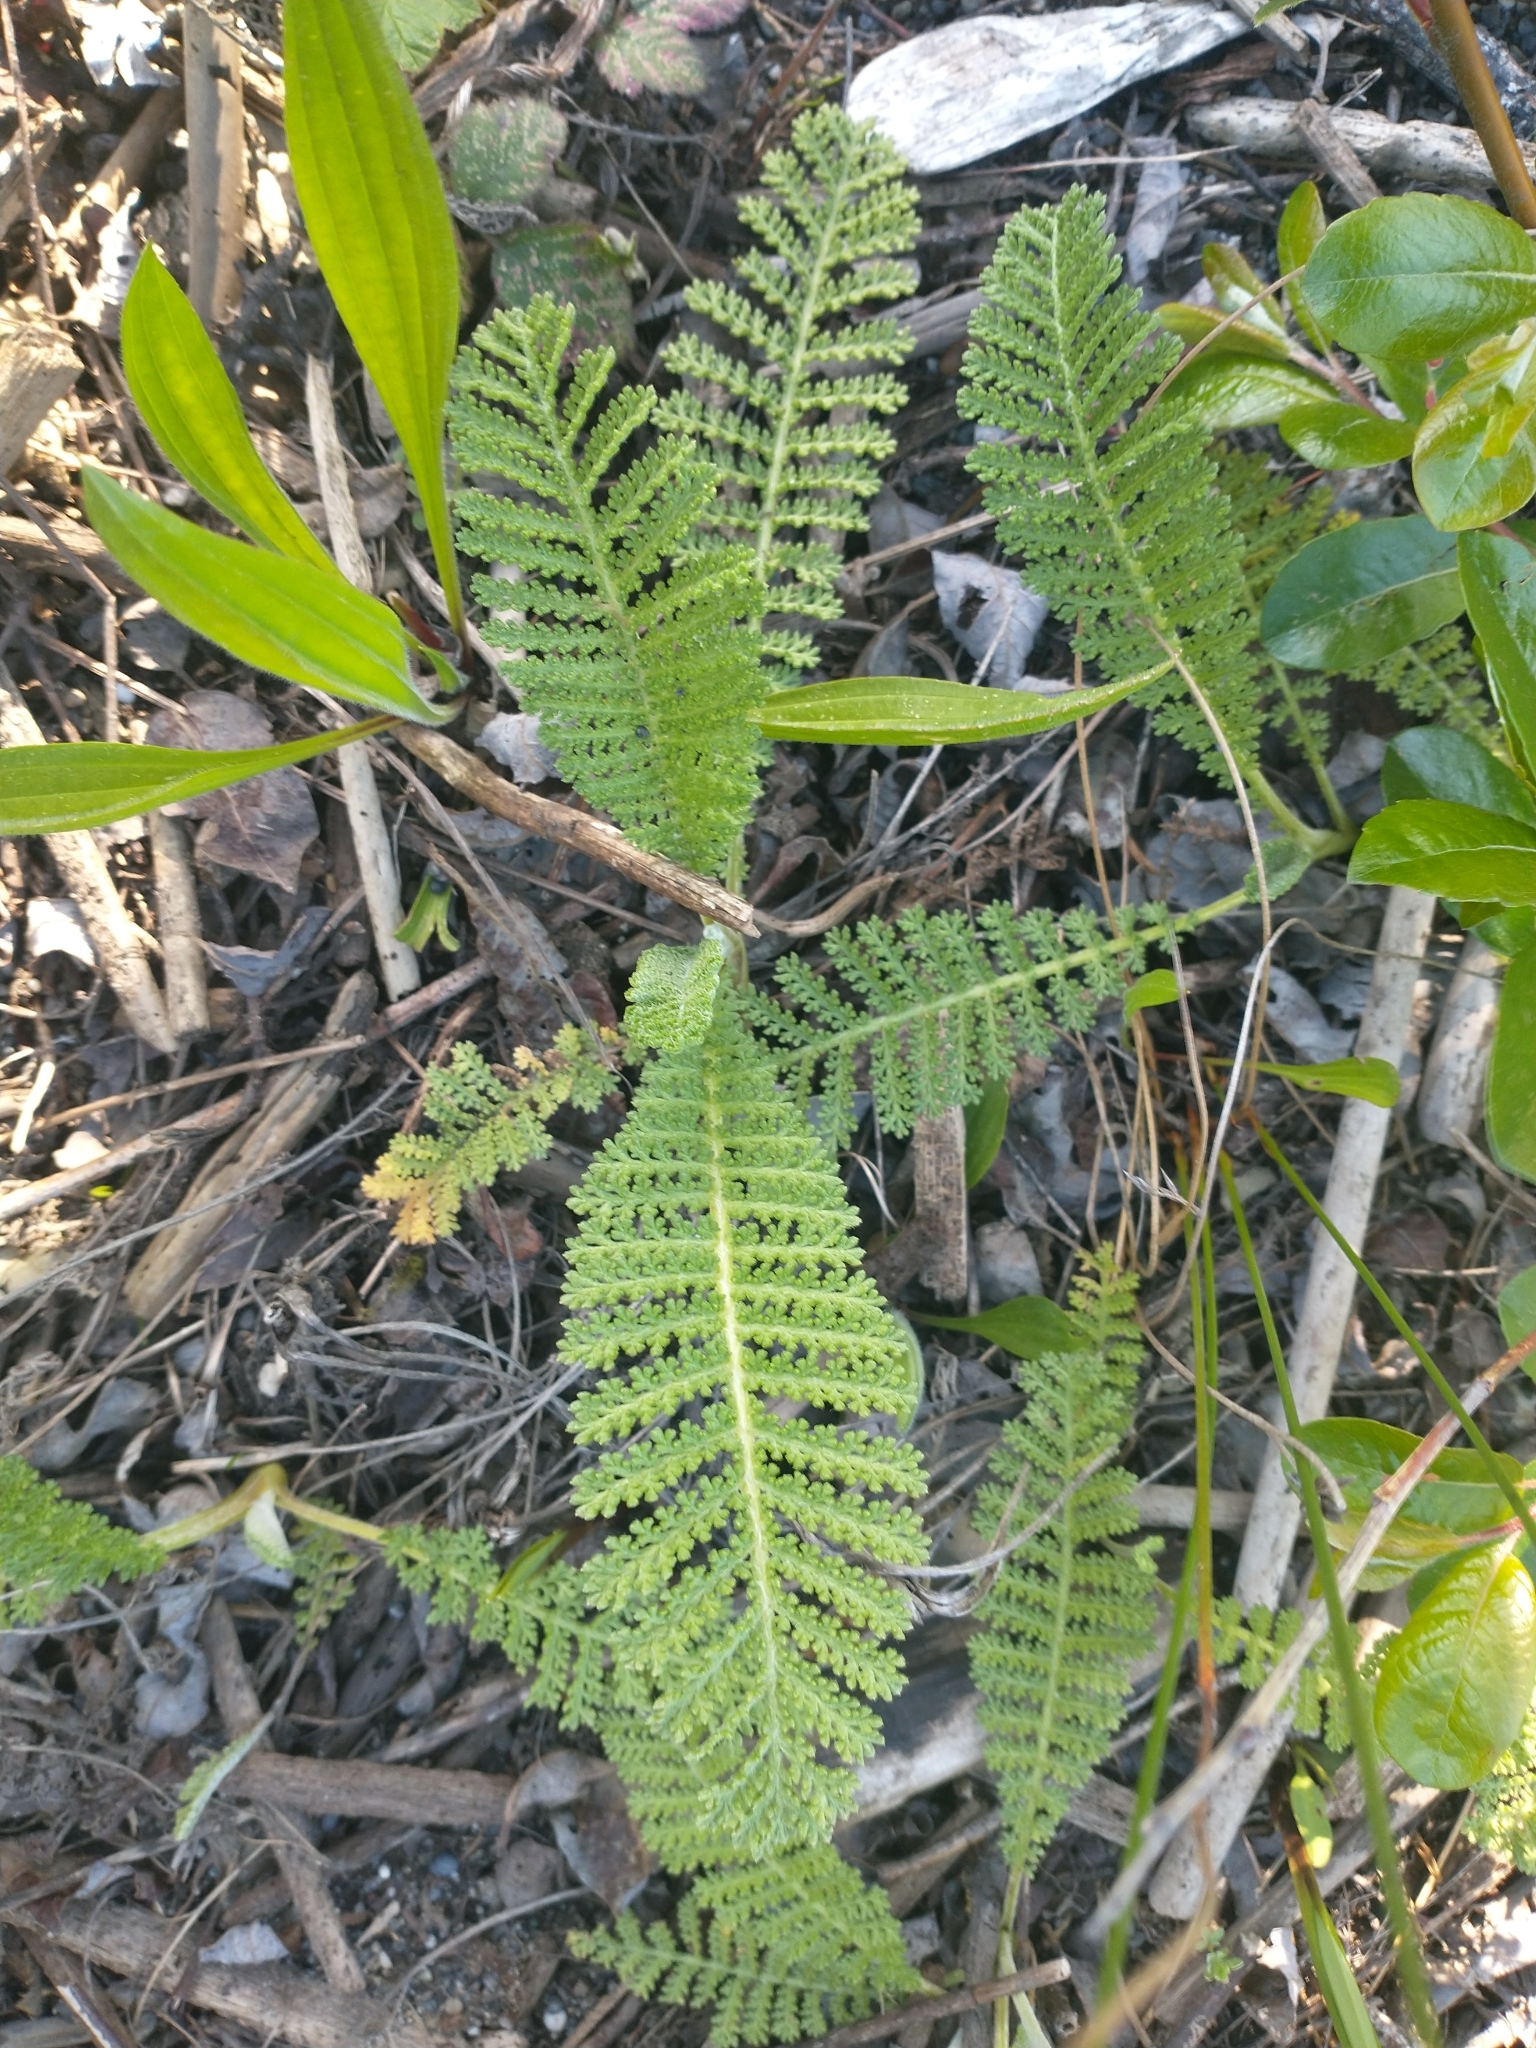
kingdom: Plantae
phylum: Tracheophyta
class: Magnoliopsida
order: Asterales
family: Asteraceae
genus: Tanacetum
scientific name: Tanacetum bipinnatum
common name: Dwarf tansy
